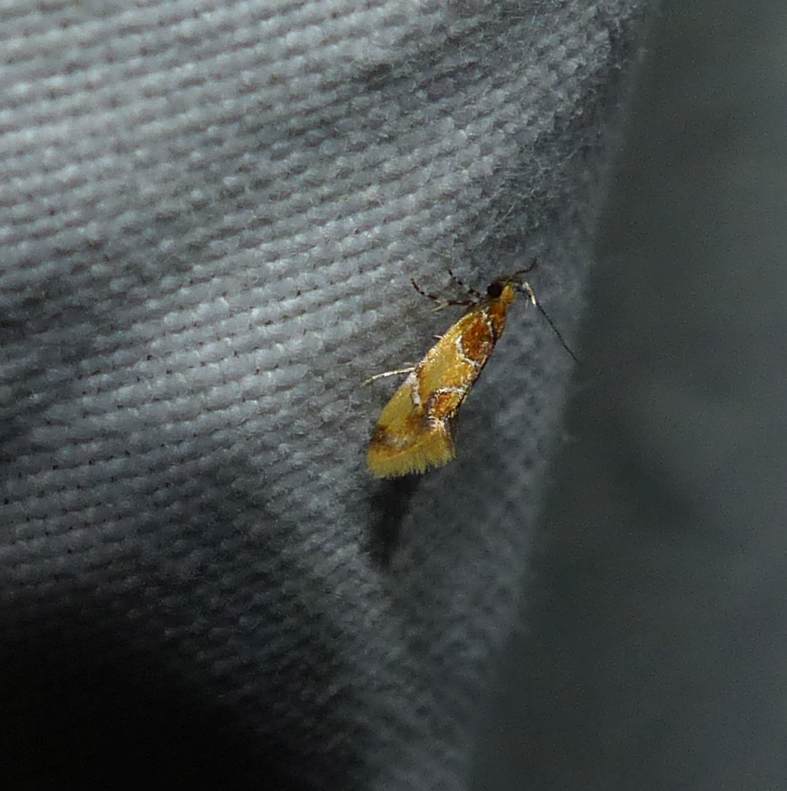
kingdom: Animalia
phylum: Arthropoda
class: Insecta
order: Lepidoptera
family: Oecophoridae
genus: Callima
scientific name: Callima argenticinctella
